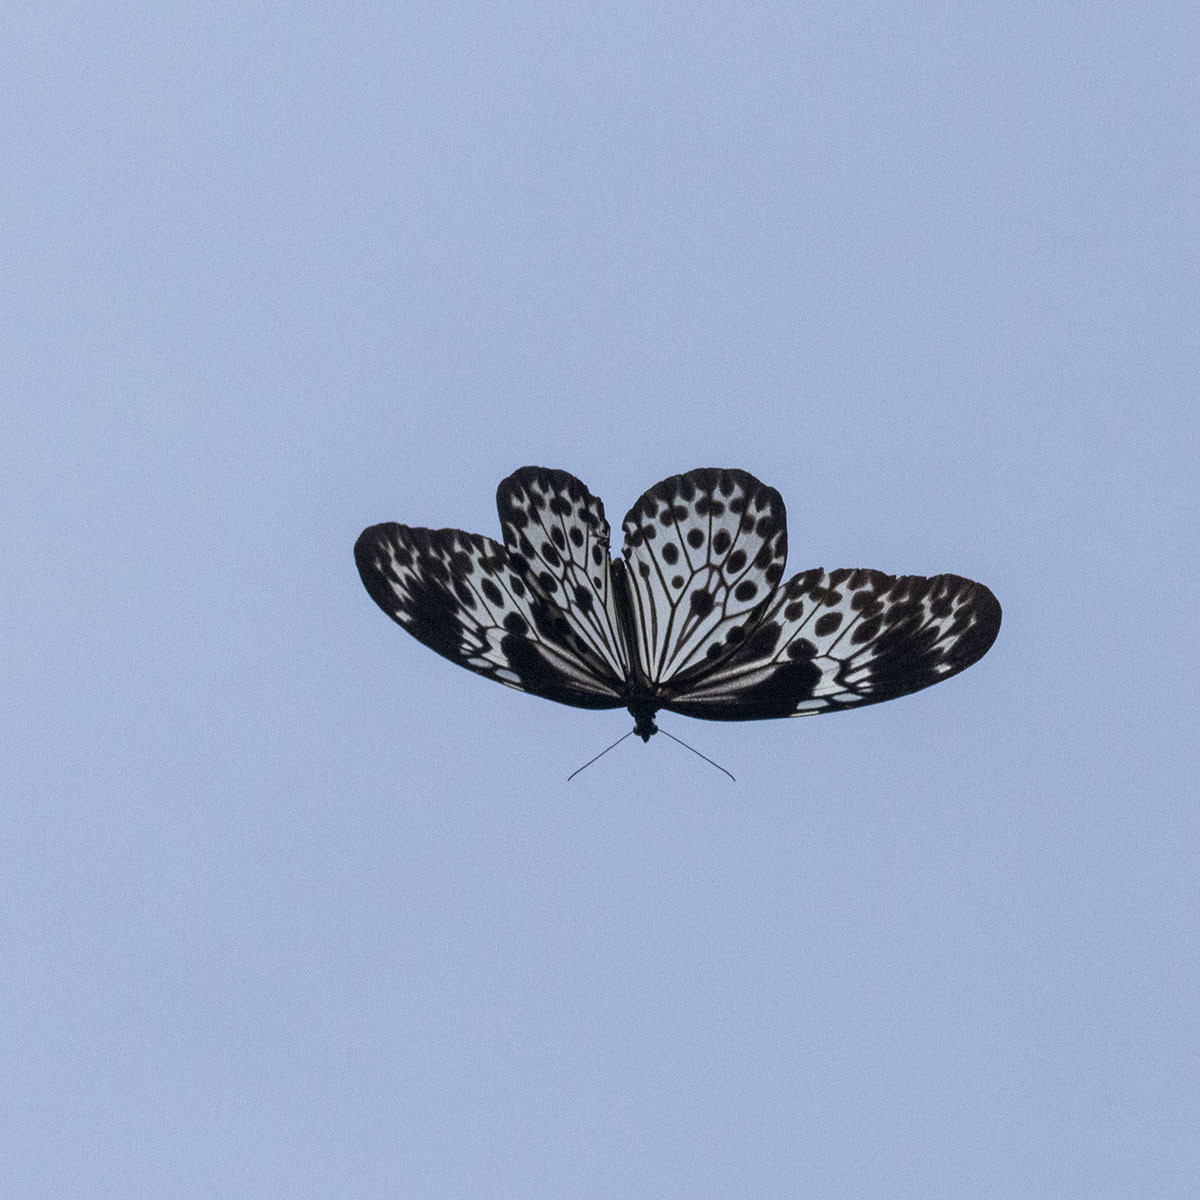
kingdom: Animalia
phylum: Arthropoda
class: Insecta
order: Lepidoptera
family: Nymphalidae
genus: Idea
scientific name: Idea agamarschana
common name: Andaman tree nymph
